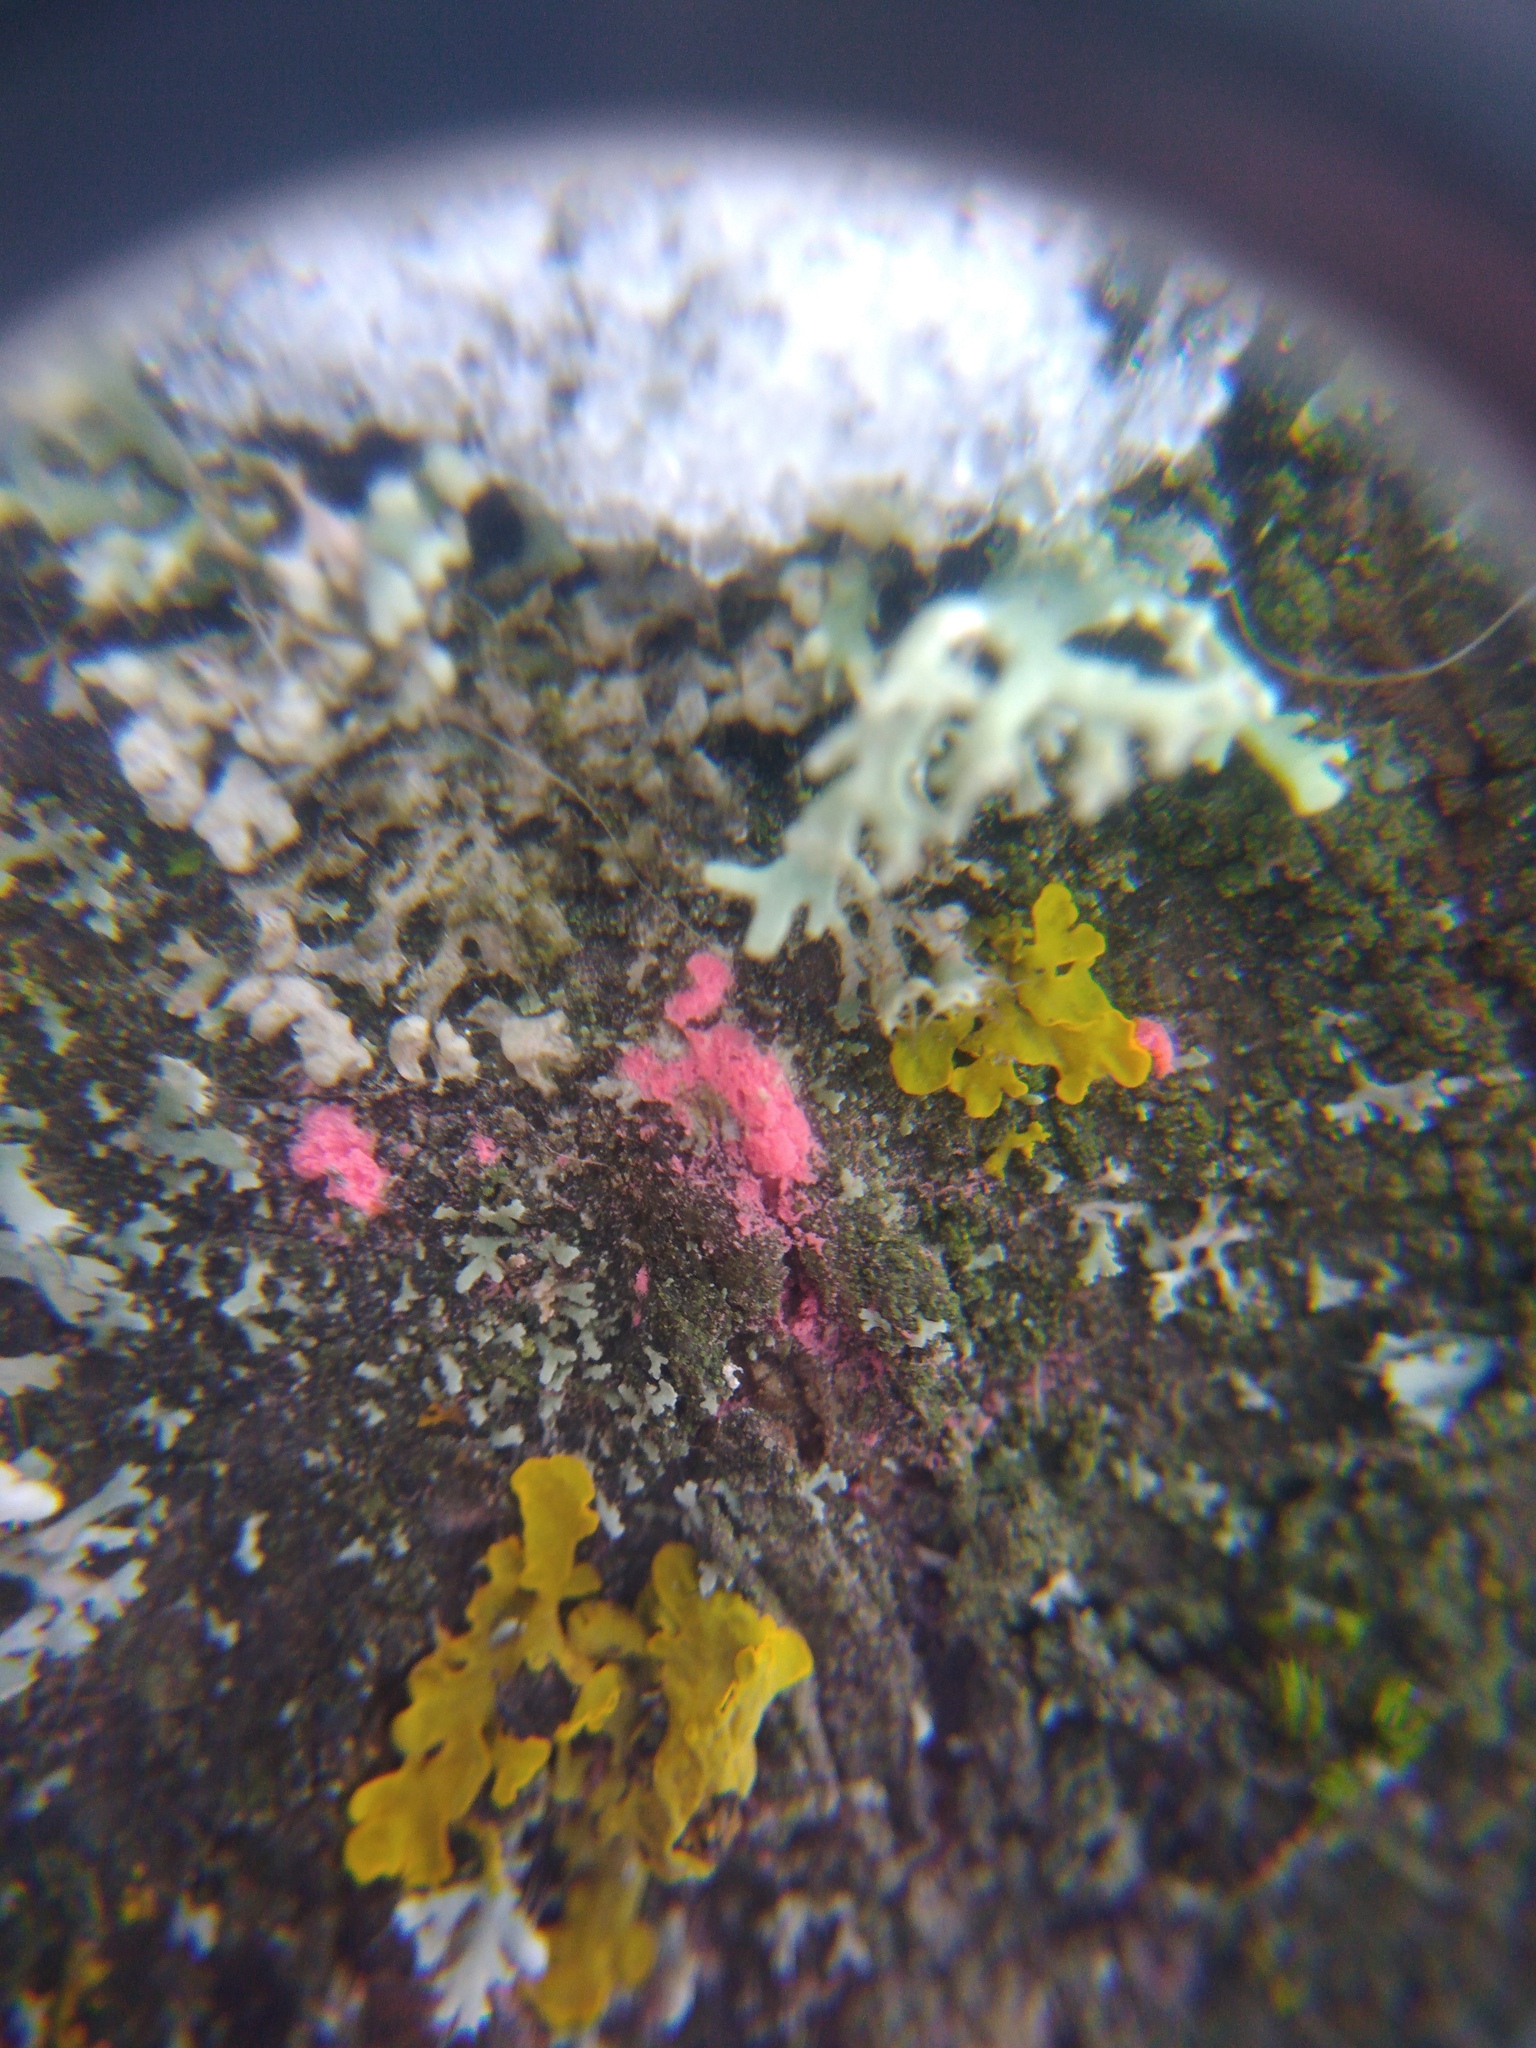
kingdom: Fungi
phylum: Ascomycota
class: Sordariomycetes
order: Hypocreales
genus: Illosporiopsis
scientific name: Illosporiopsis christiansenii
